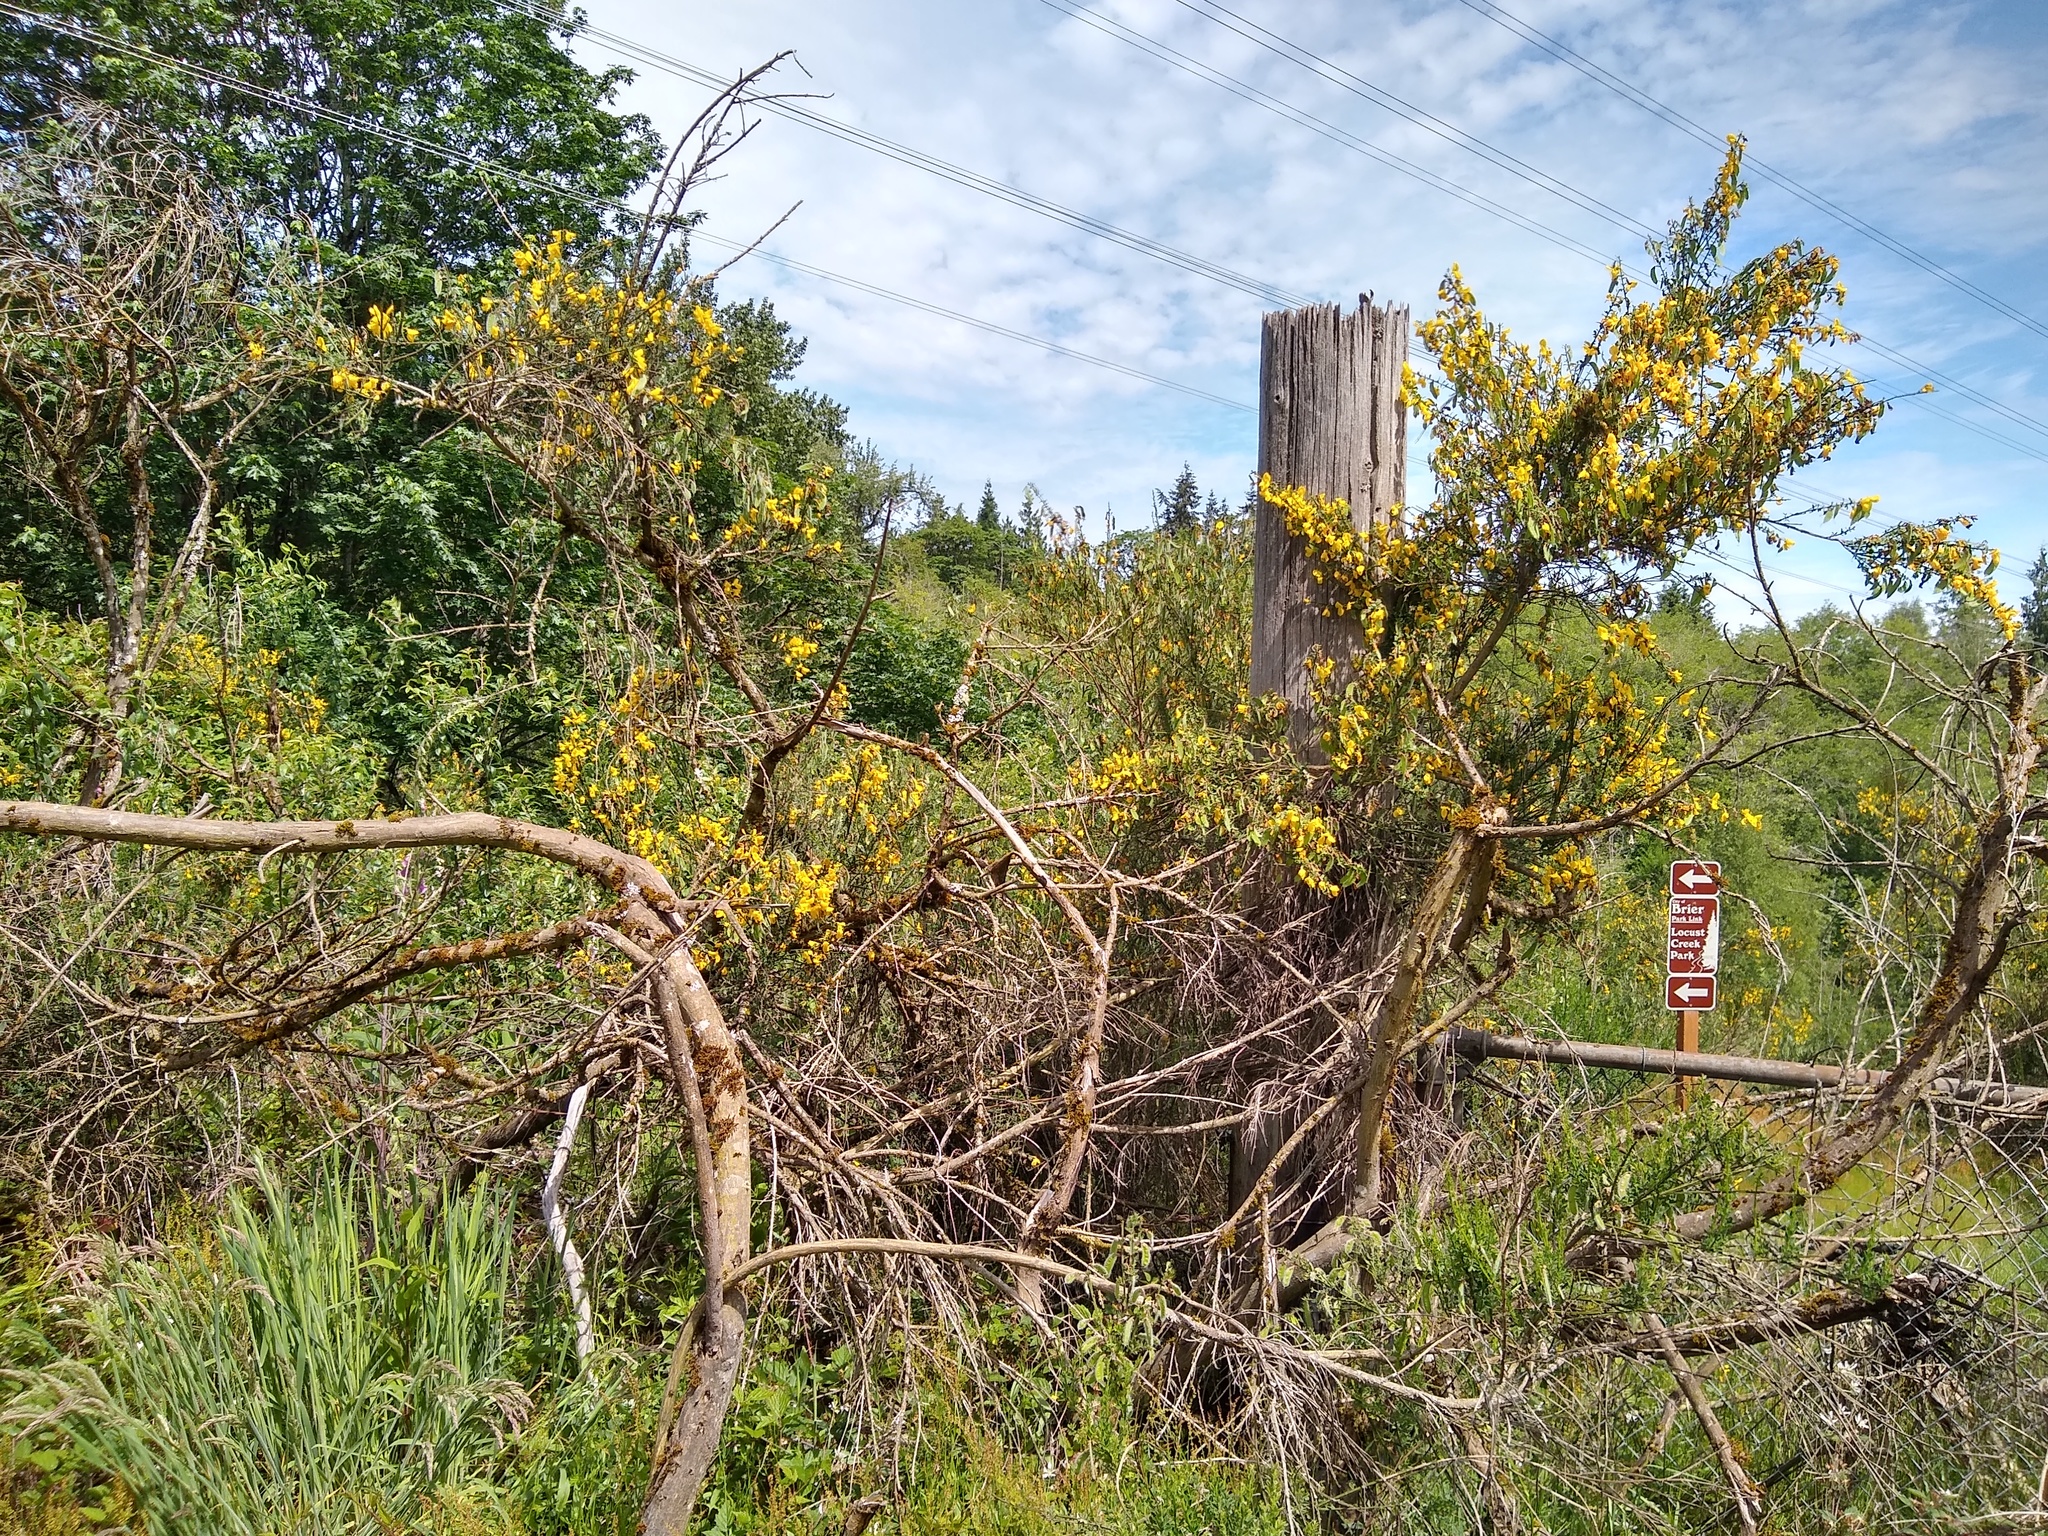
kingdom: Plantae
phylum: Tracheophyta
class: Magnoliopsida
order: Fabales
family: Fabaceae
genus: Cytisus
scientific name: Cytisus scoparius
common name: Scotch broom
